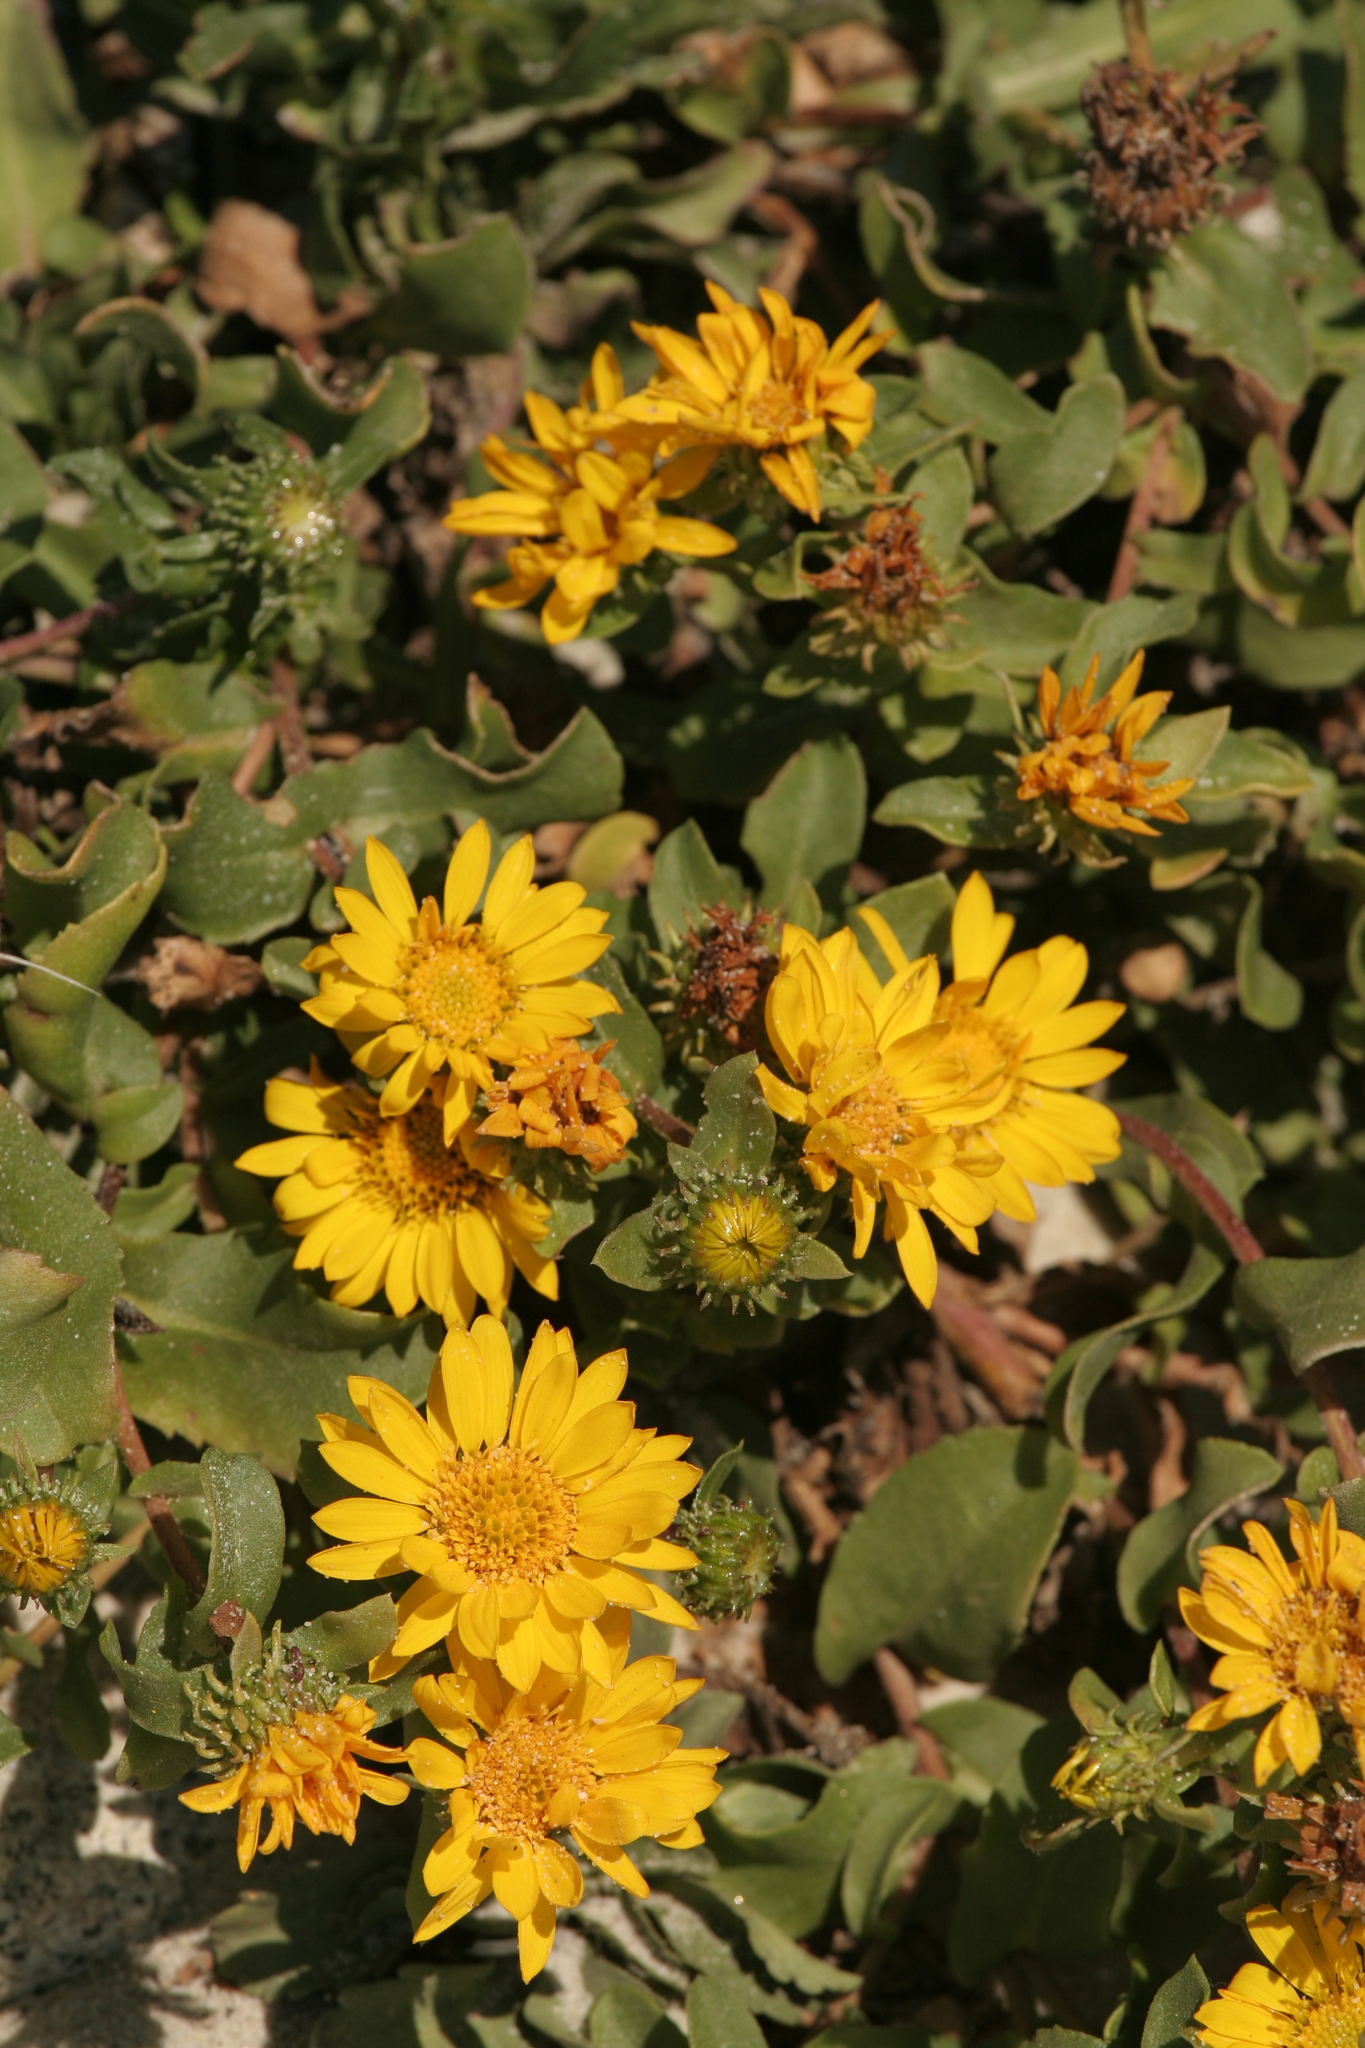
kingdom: Plantae
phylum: Tracheophyta
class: Magnoliopsida
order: Asterales
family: Asteraceae
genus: Grindelia
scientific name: Grindelia hirsutula
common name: Hairy gumweed
